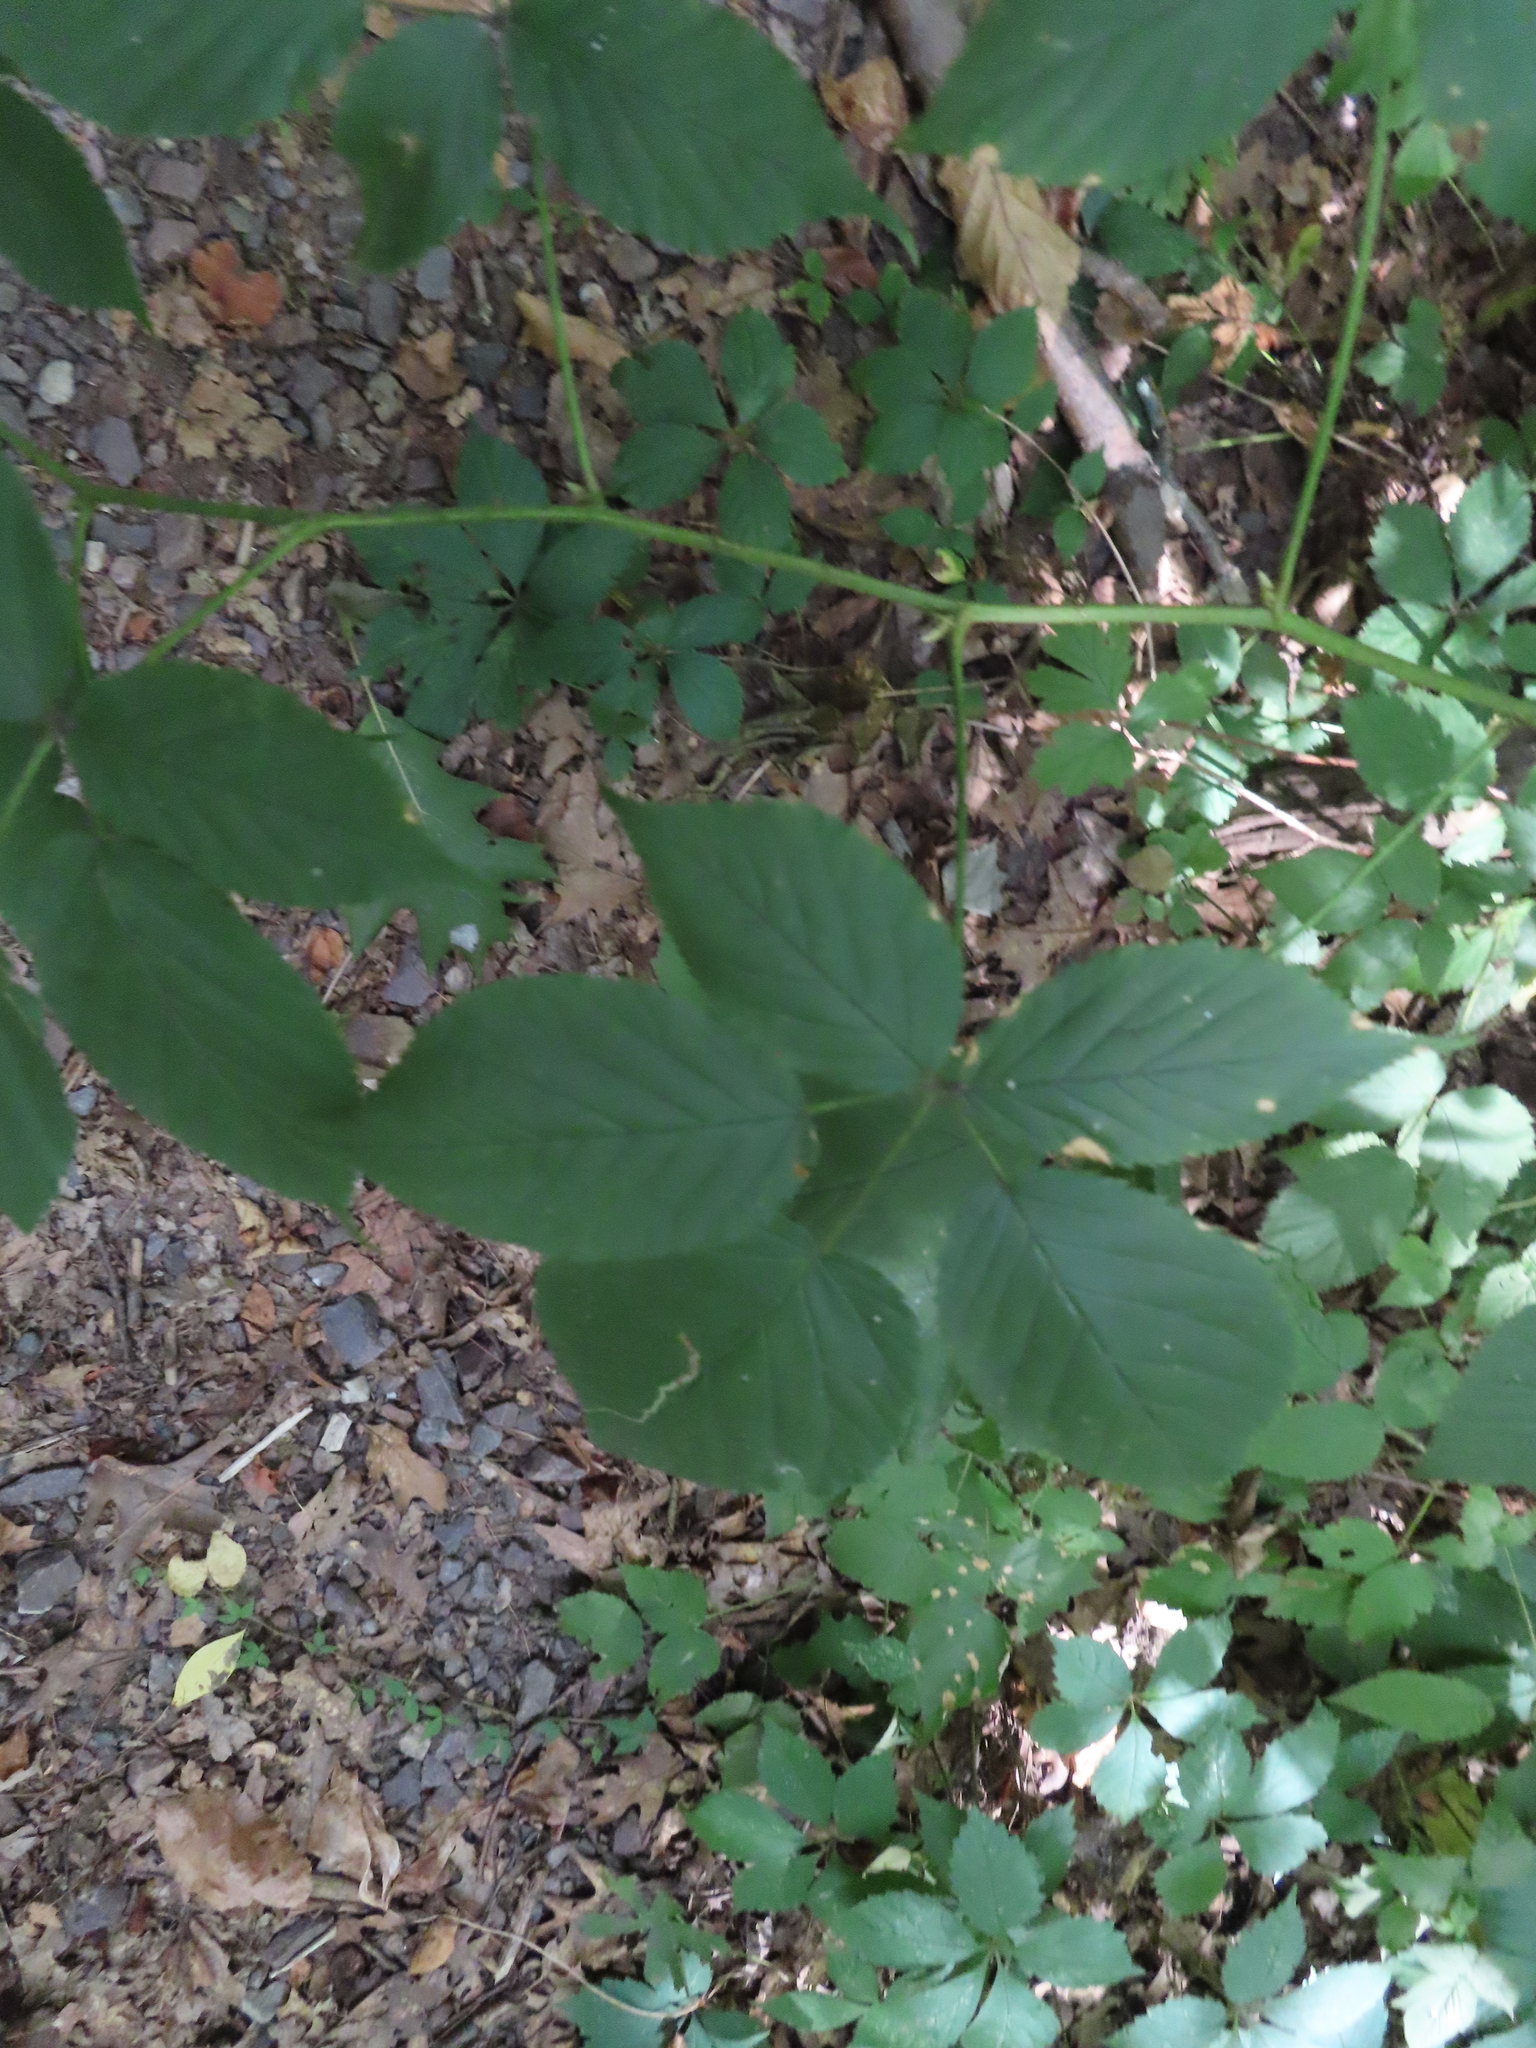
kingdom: Plantae
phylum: Tracheophyta
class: Magnoliopsida
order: Rosales
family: Rosaceae
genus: Rubus
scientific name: Rubus allegheniensis
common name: Allegheny blackberry
